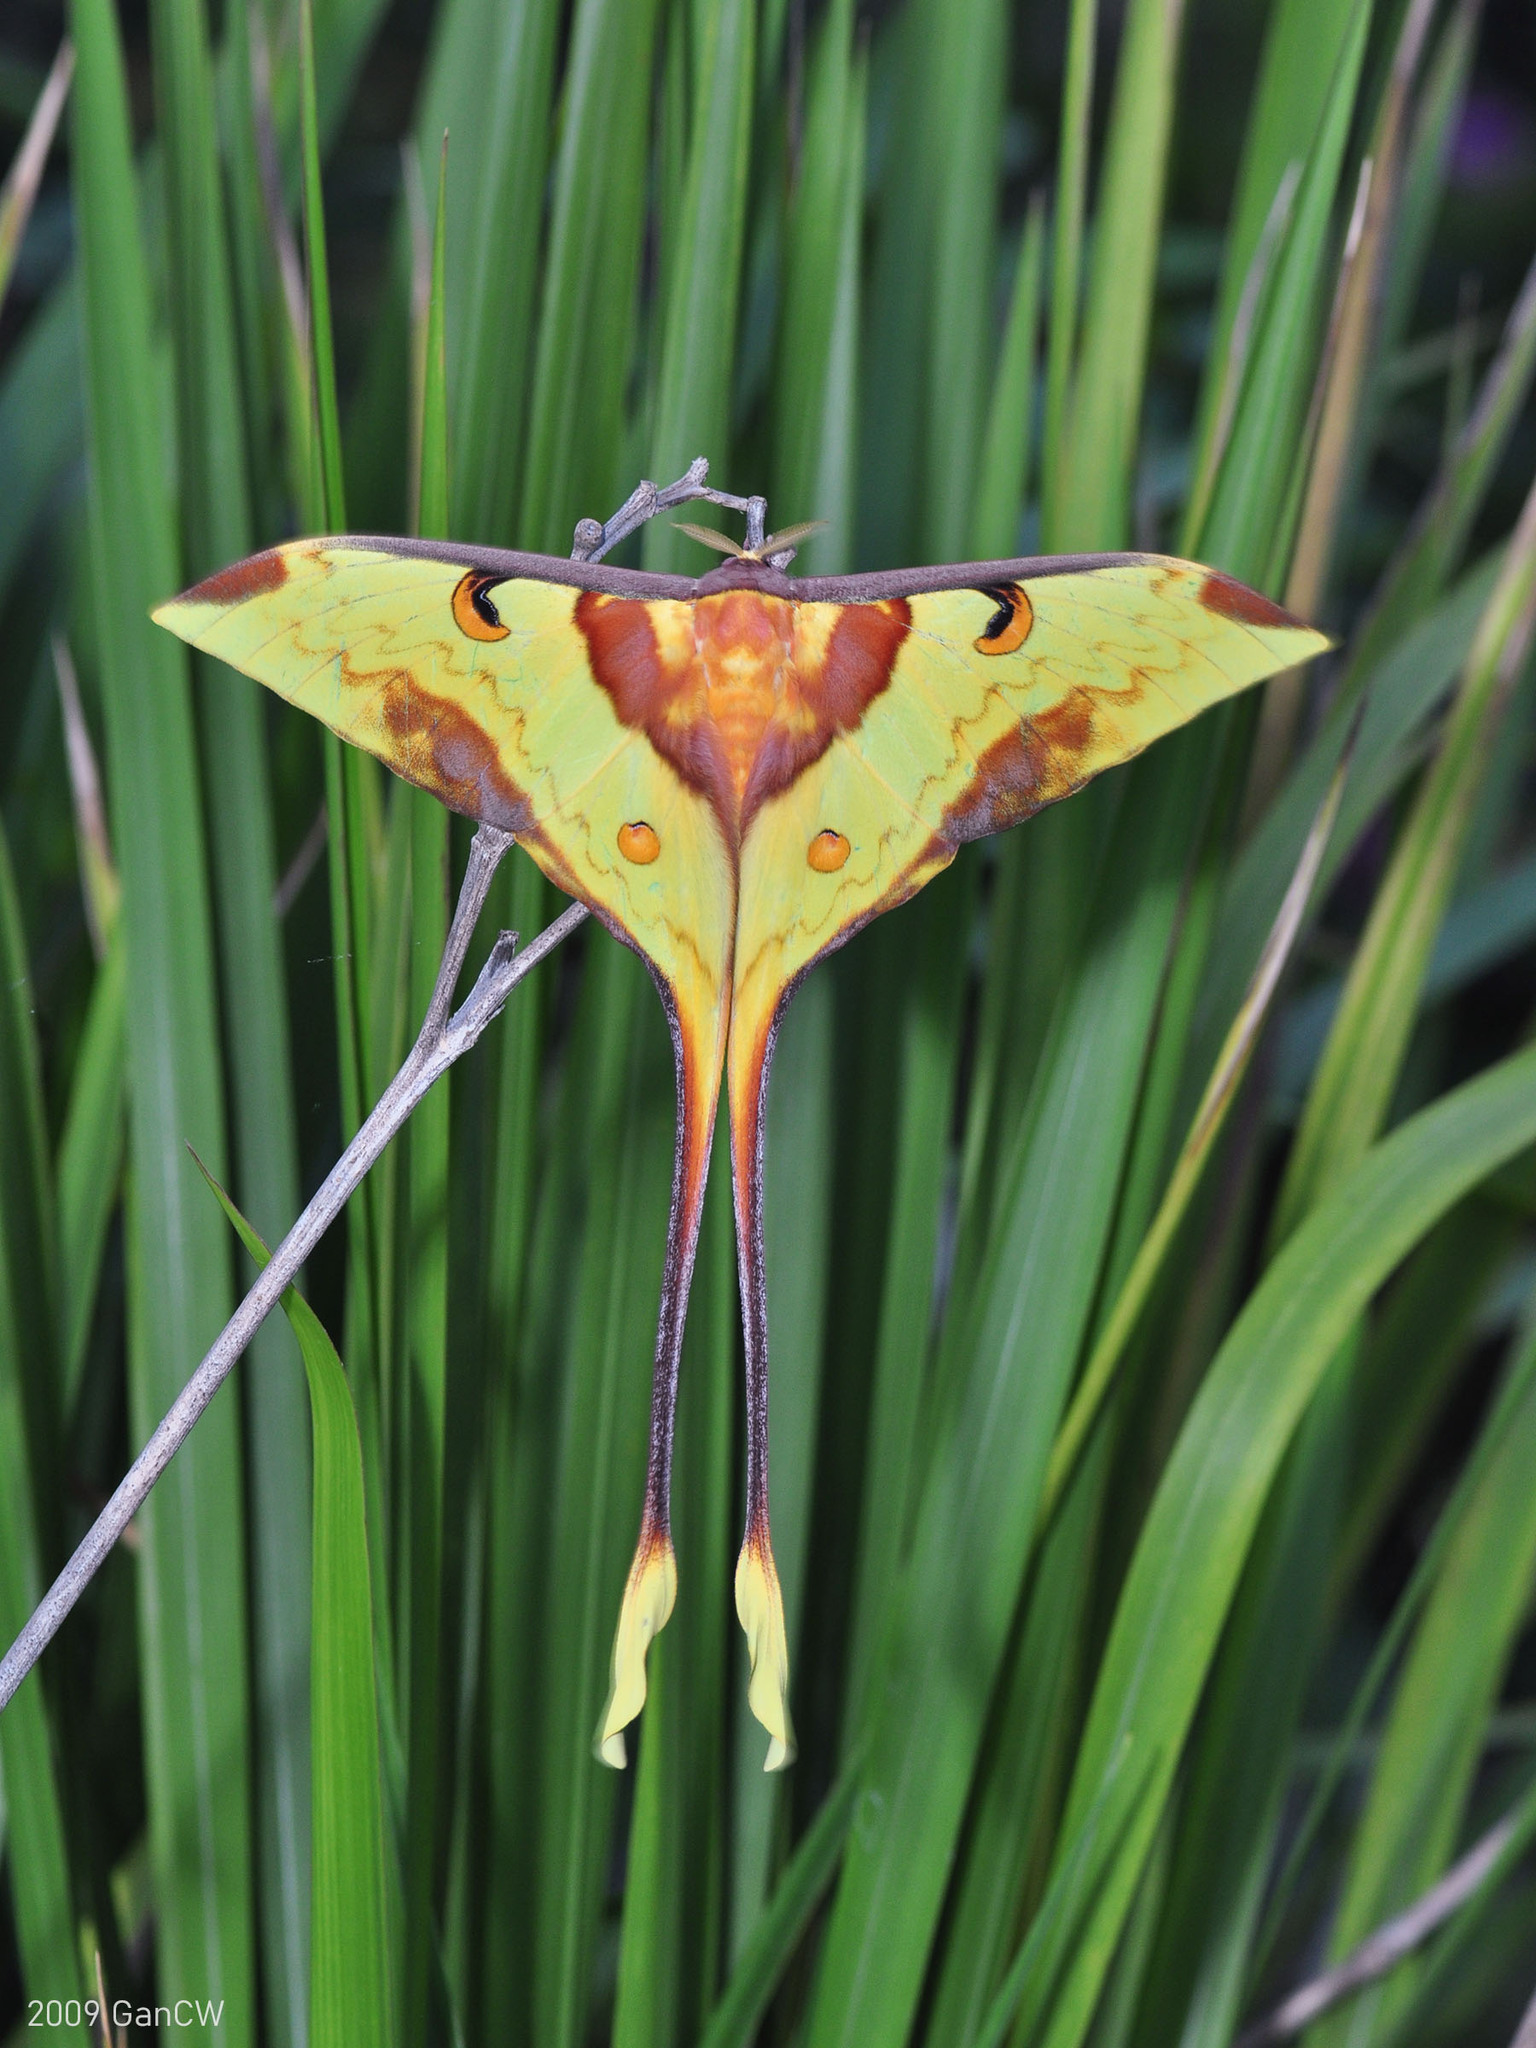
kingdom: Animalia
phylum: Arthropoda
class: Insecta
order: Lepidoptera
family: Saturniidae
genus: Actias
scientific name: Actias maenas
